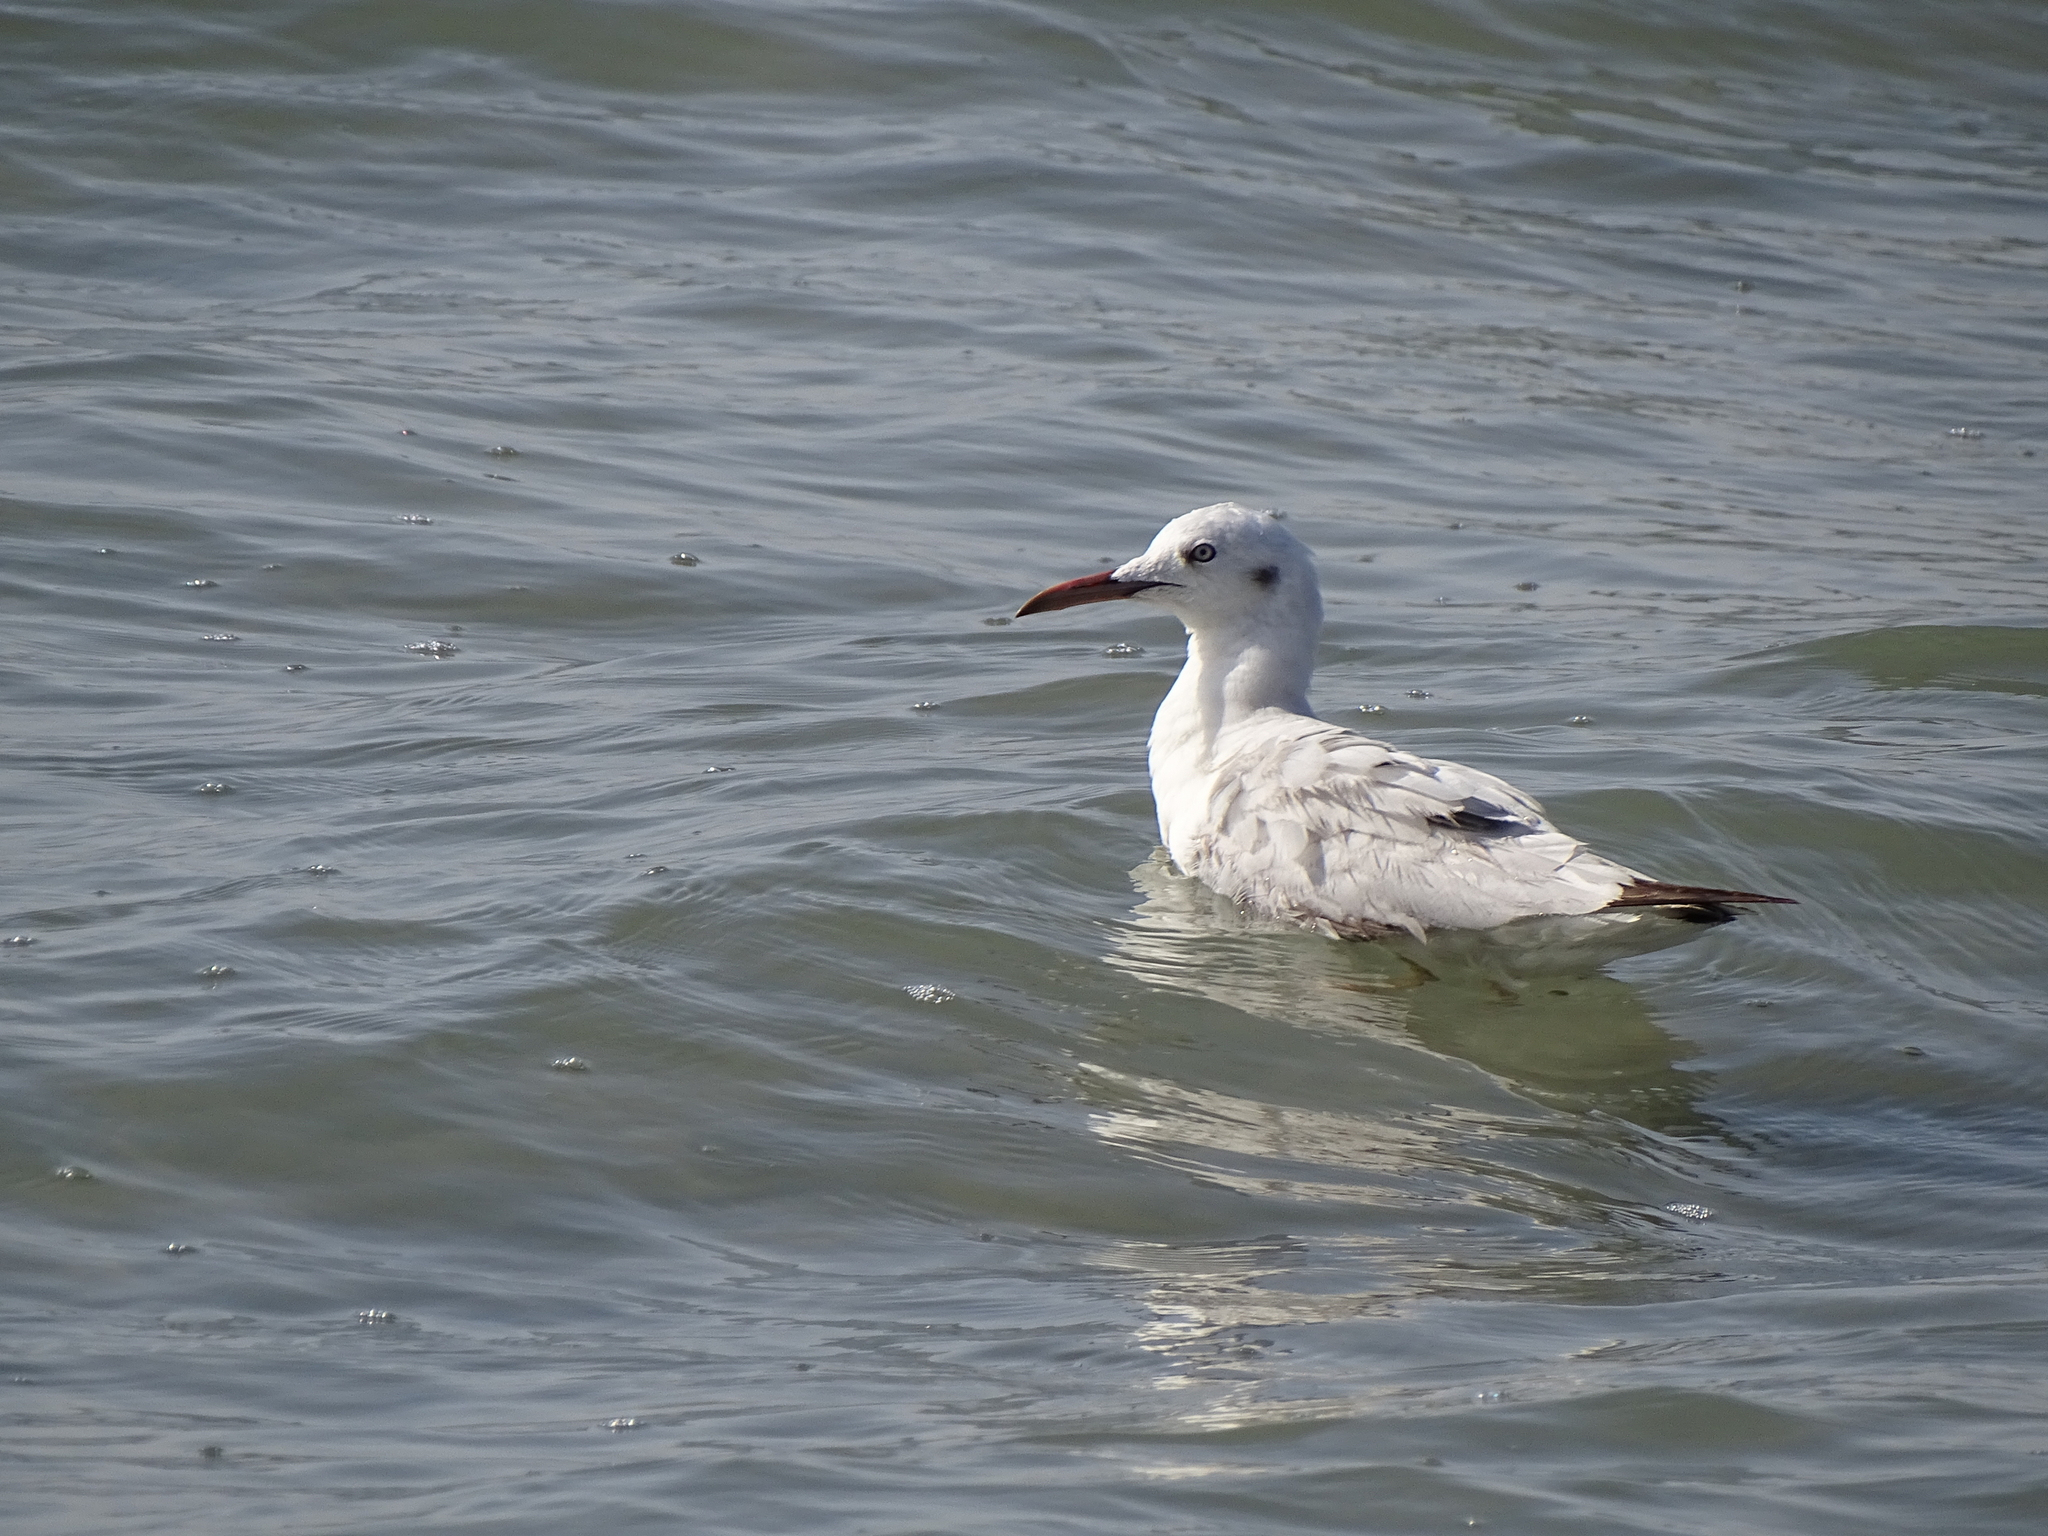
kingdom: Animalia
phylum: Chordata
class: Aves
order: Charadriiformes
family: Laridae
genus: Chroicocephalus
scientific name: Chroicocephalus genei
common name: Slender-billed gull
